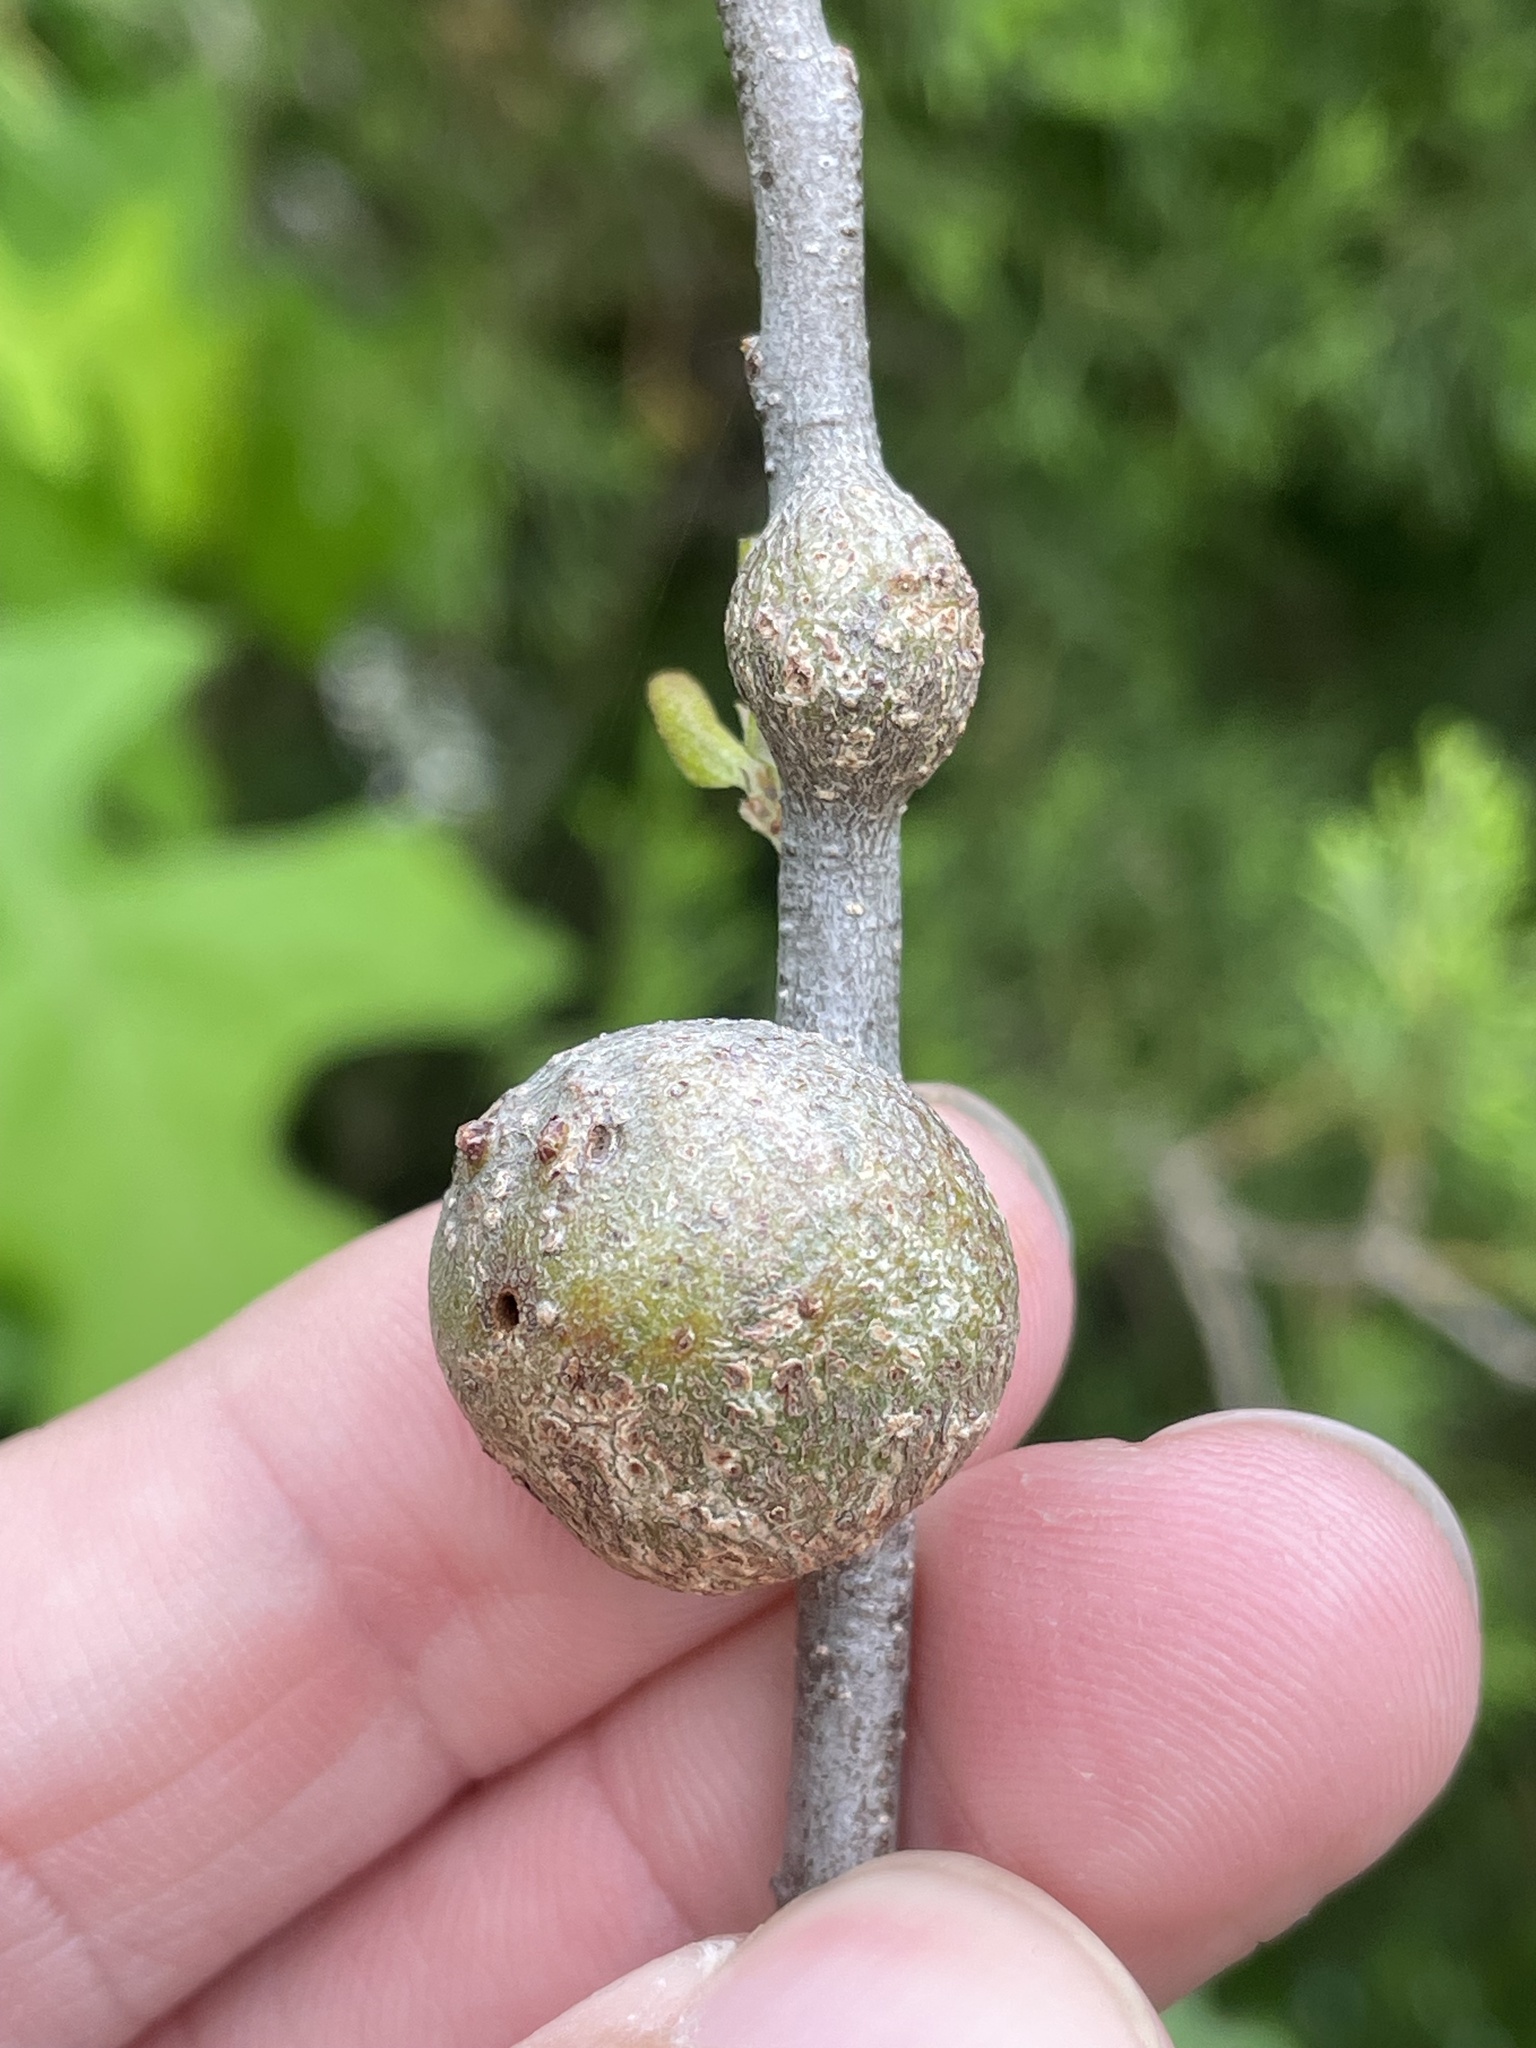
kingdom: Animalia
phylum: Arthropoda
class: Insecta
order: Hymenoptera
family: Cynipidae
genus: Callirhytis
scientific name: Callirhytis
